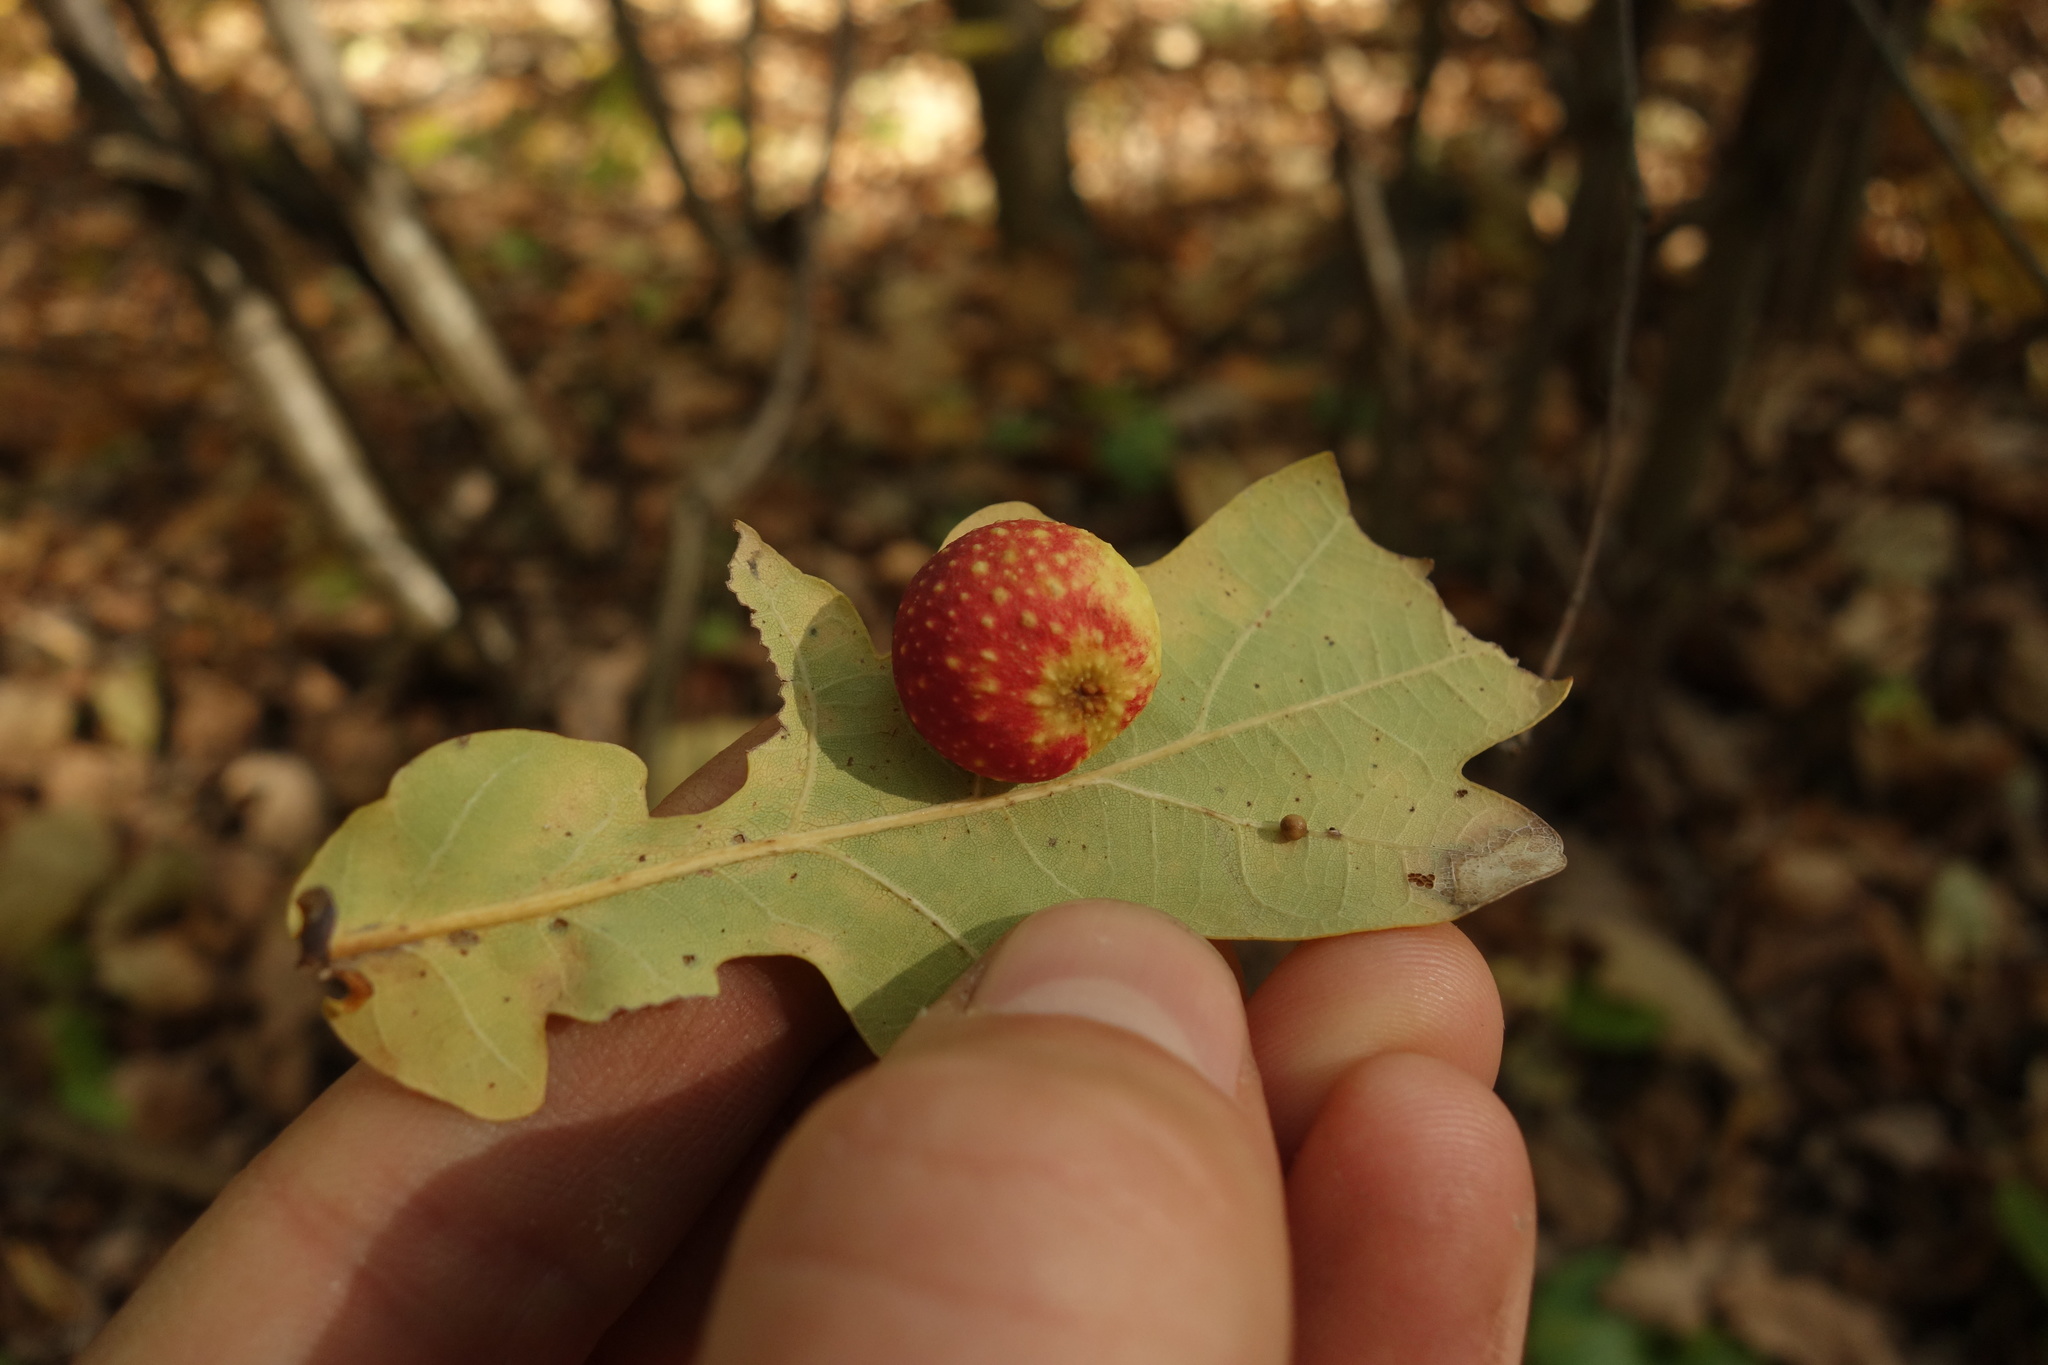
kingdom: Animalia
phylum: Arthropoda
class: Insecta
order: Hymenoptera
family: Cynipidae
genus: Cynips
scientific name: Cynips quercusfolii
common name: Cherry gall
